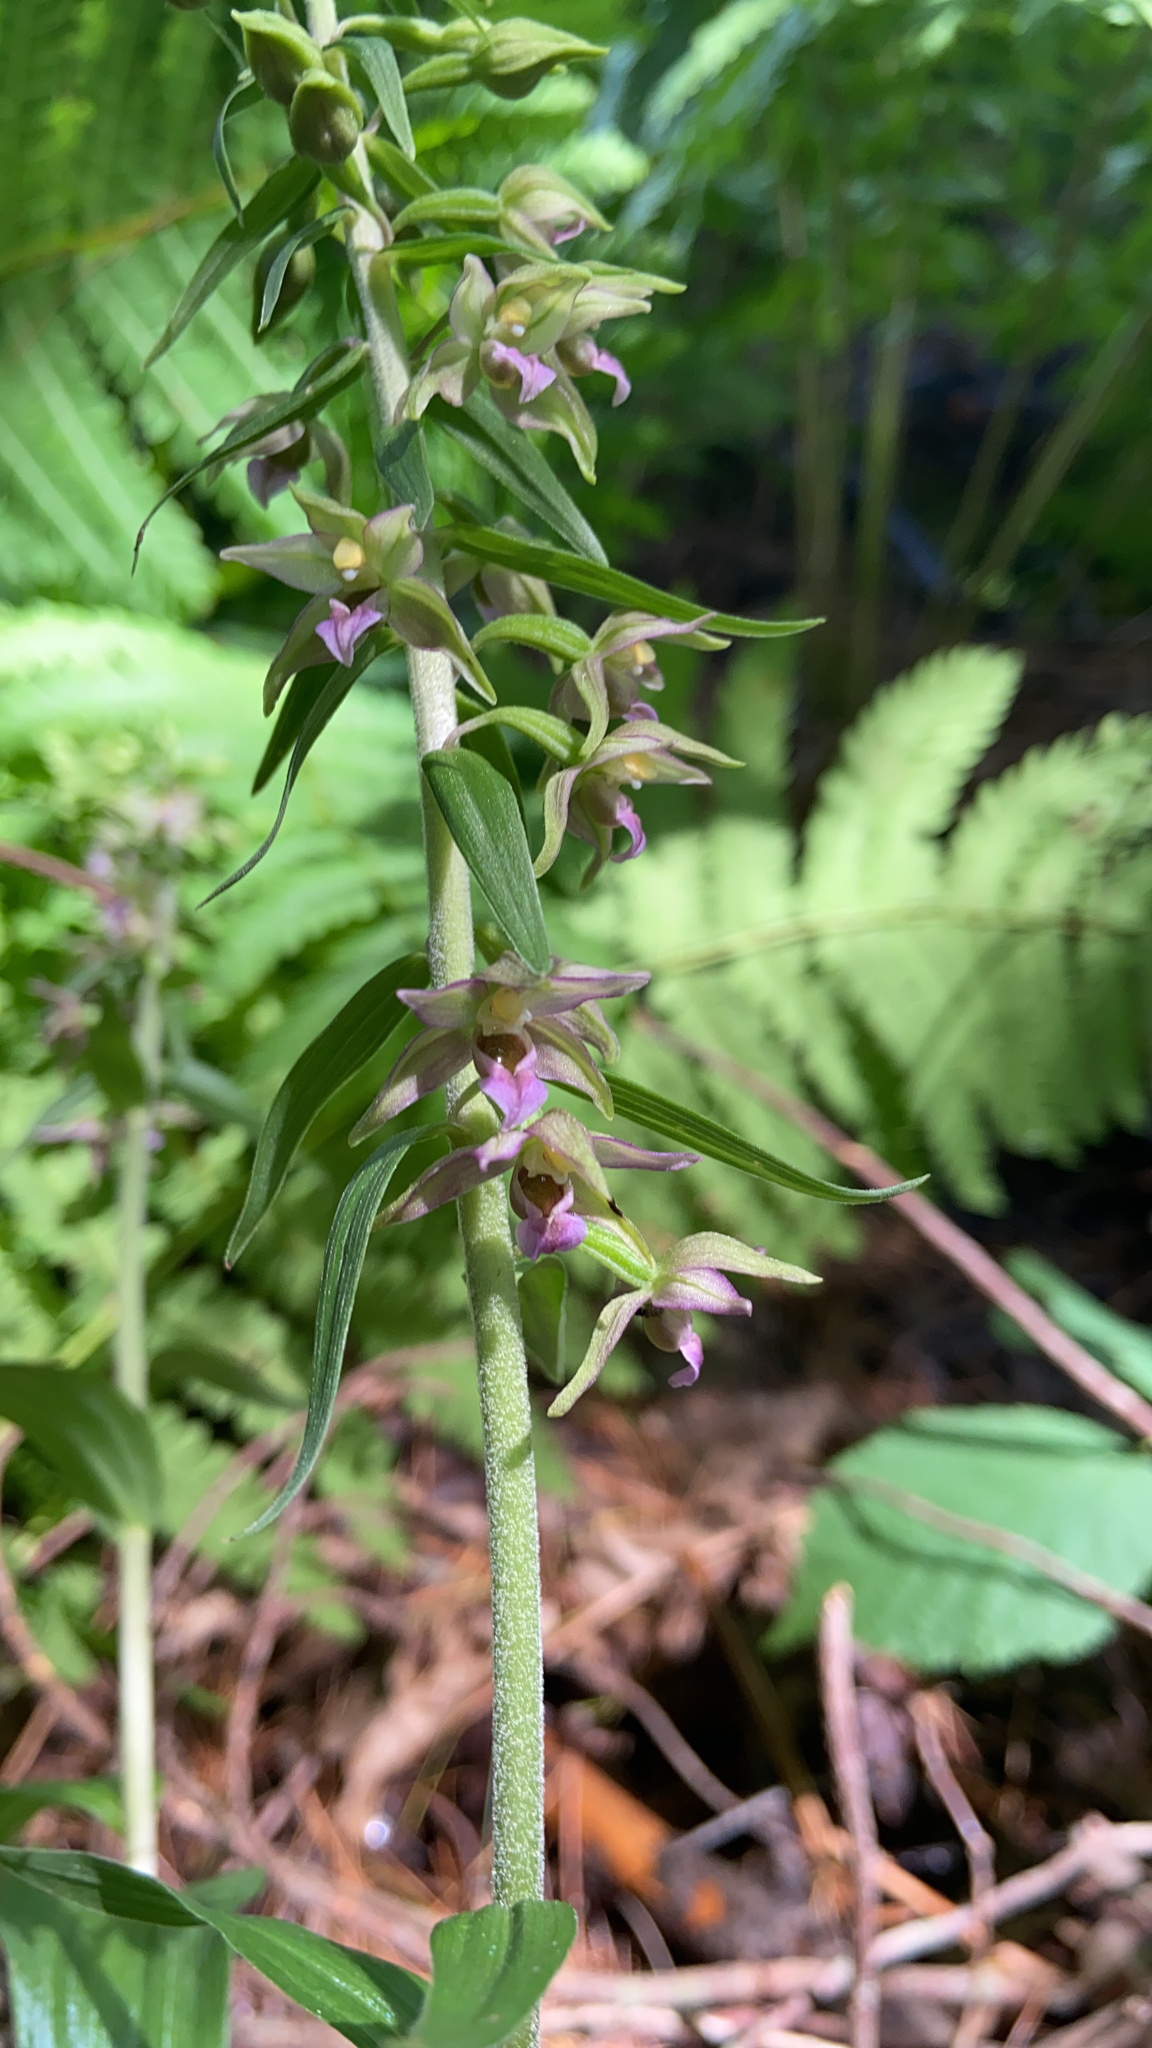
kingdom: Plantae
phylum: Tracheophyta
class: Liliopsida
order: Asparagales
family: Orchidaceae
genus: Epipactis
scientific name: Epipactis helleborine
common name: Broad-leaved helleborine
